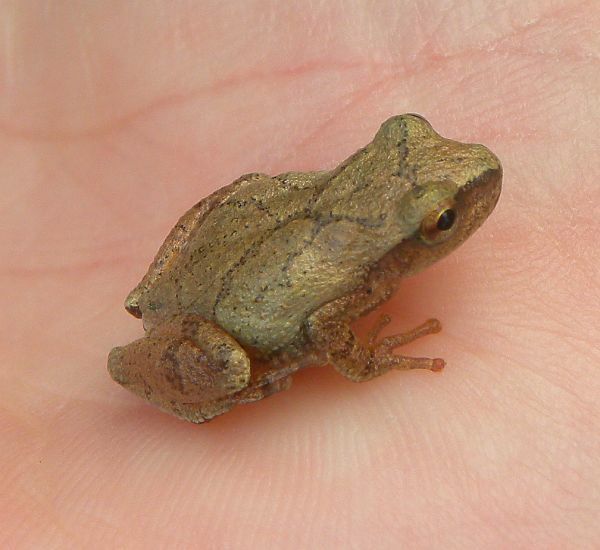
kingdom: Animalia
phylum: Chordata
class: Amphibia
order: Anura
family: Hylidae
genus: Pseudacris
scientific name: Pseudacris crucifer
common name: Spring peeper
